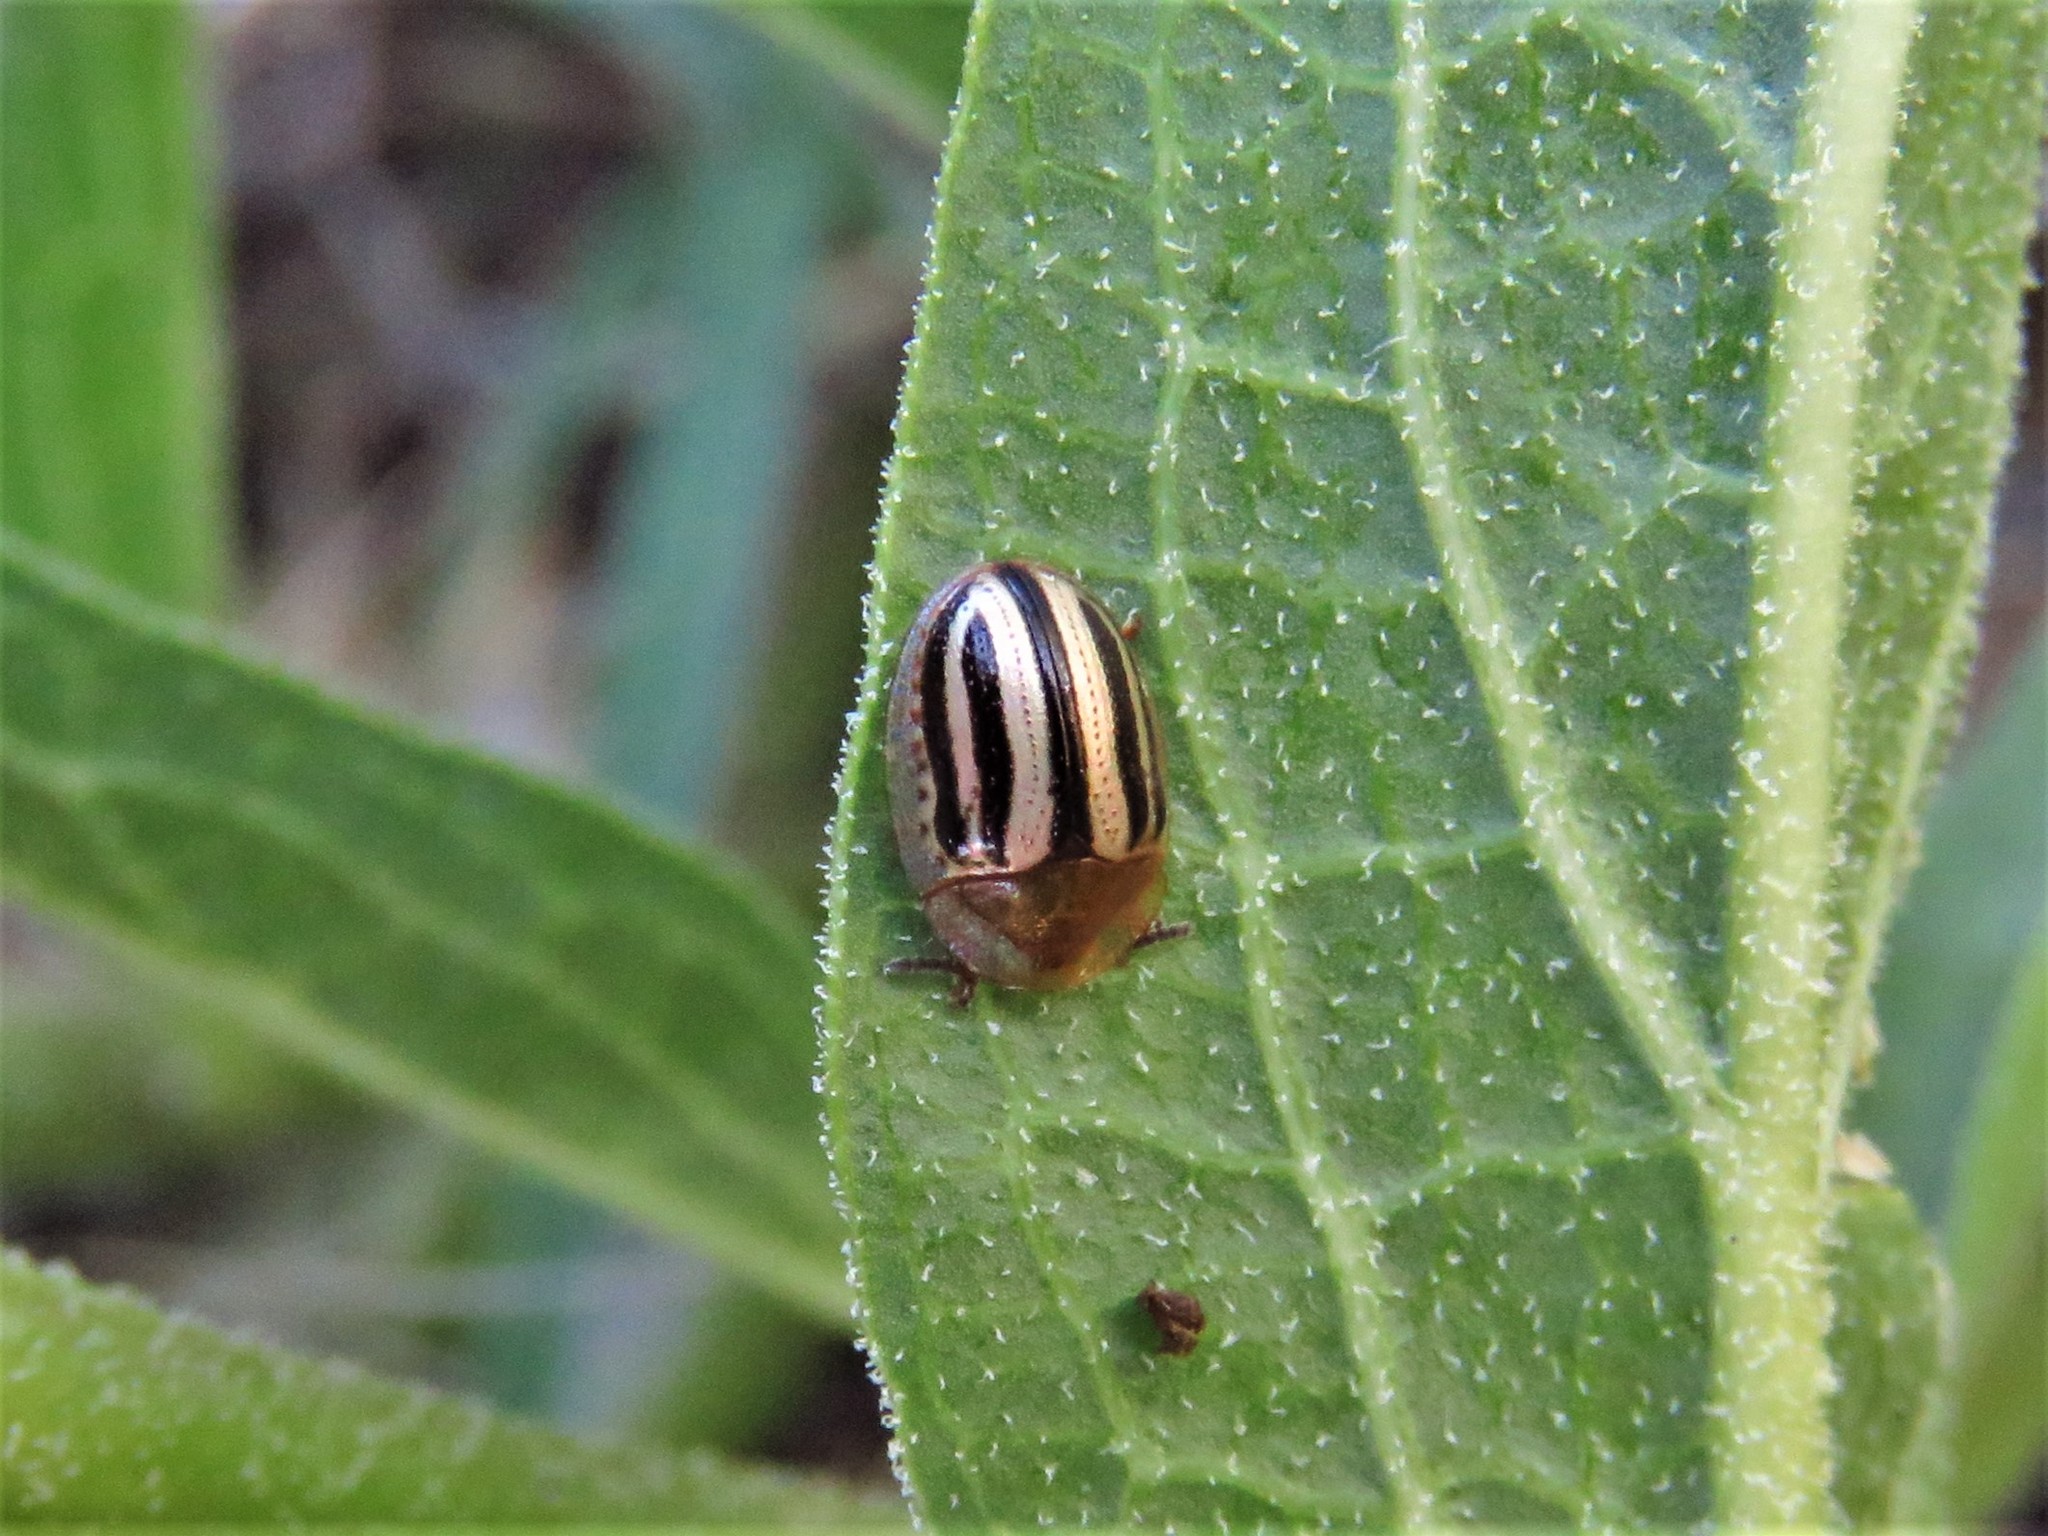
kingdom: Animalia
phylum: Arthropoda
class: Insecta
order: Coleoptera
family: Chrysomelidae
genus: Agroiconota
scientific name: Agroiconota bivittata
